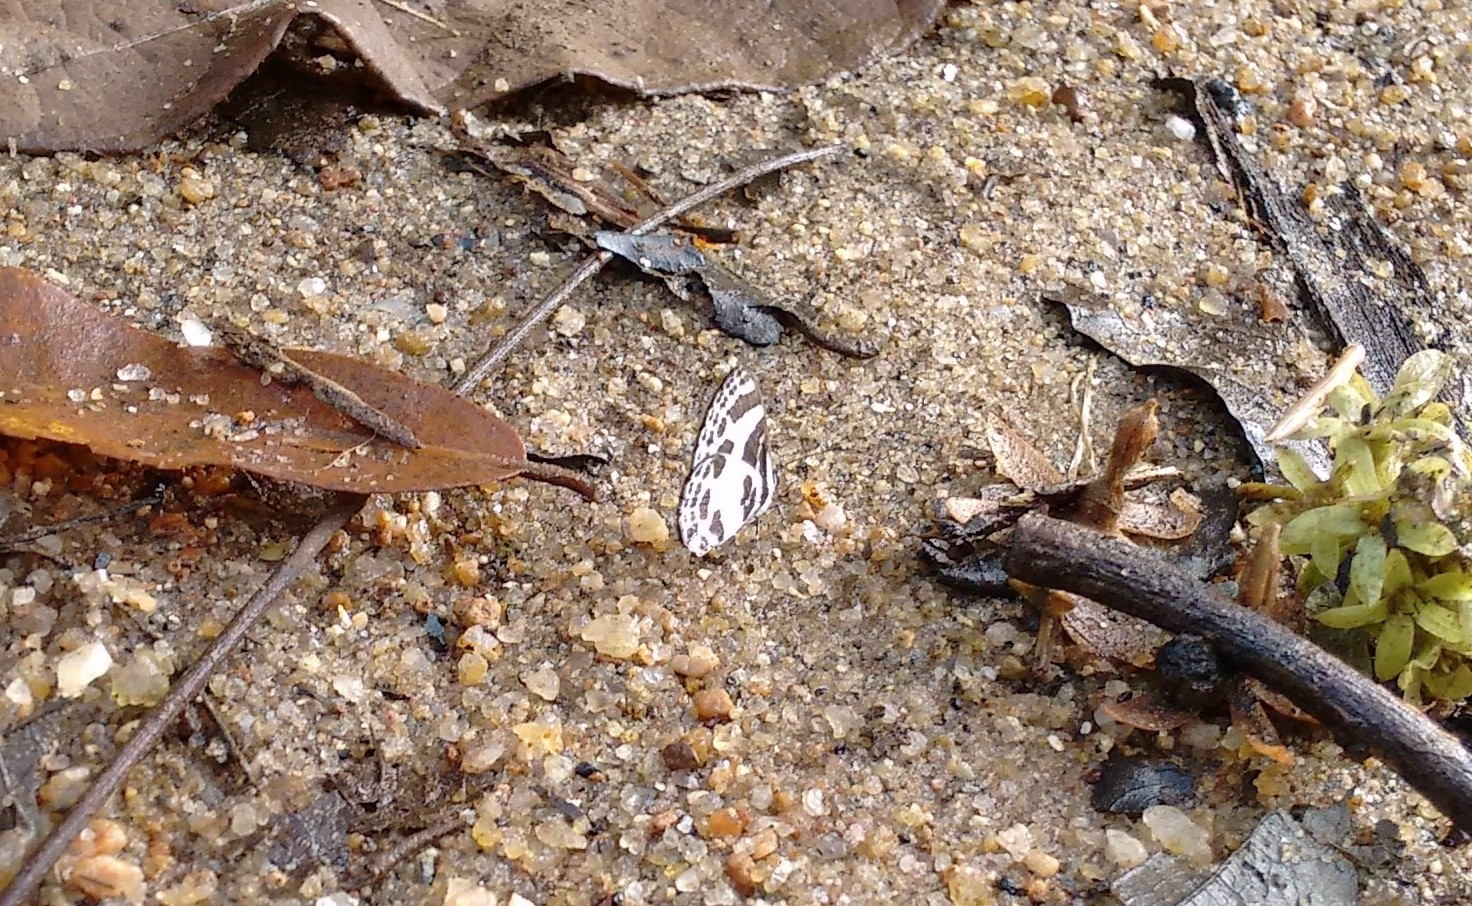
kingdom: Animalia
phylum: Arthropoda
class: Insecta
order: Lepidoptera
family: Lycaenidae
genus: Discolampa
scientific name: Discolampa ethion
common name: Banded blue pierrot
